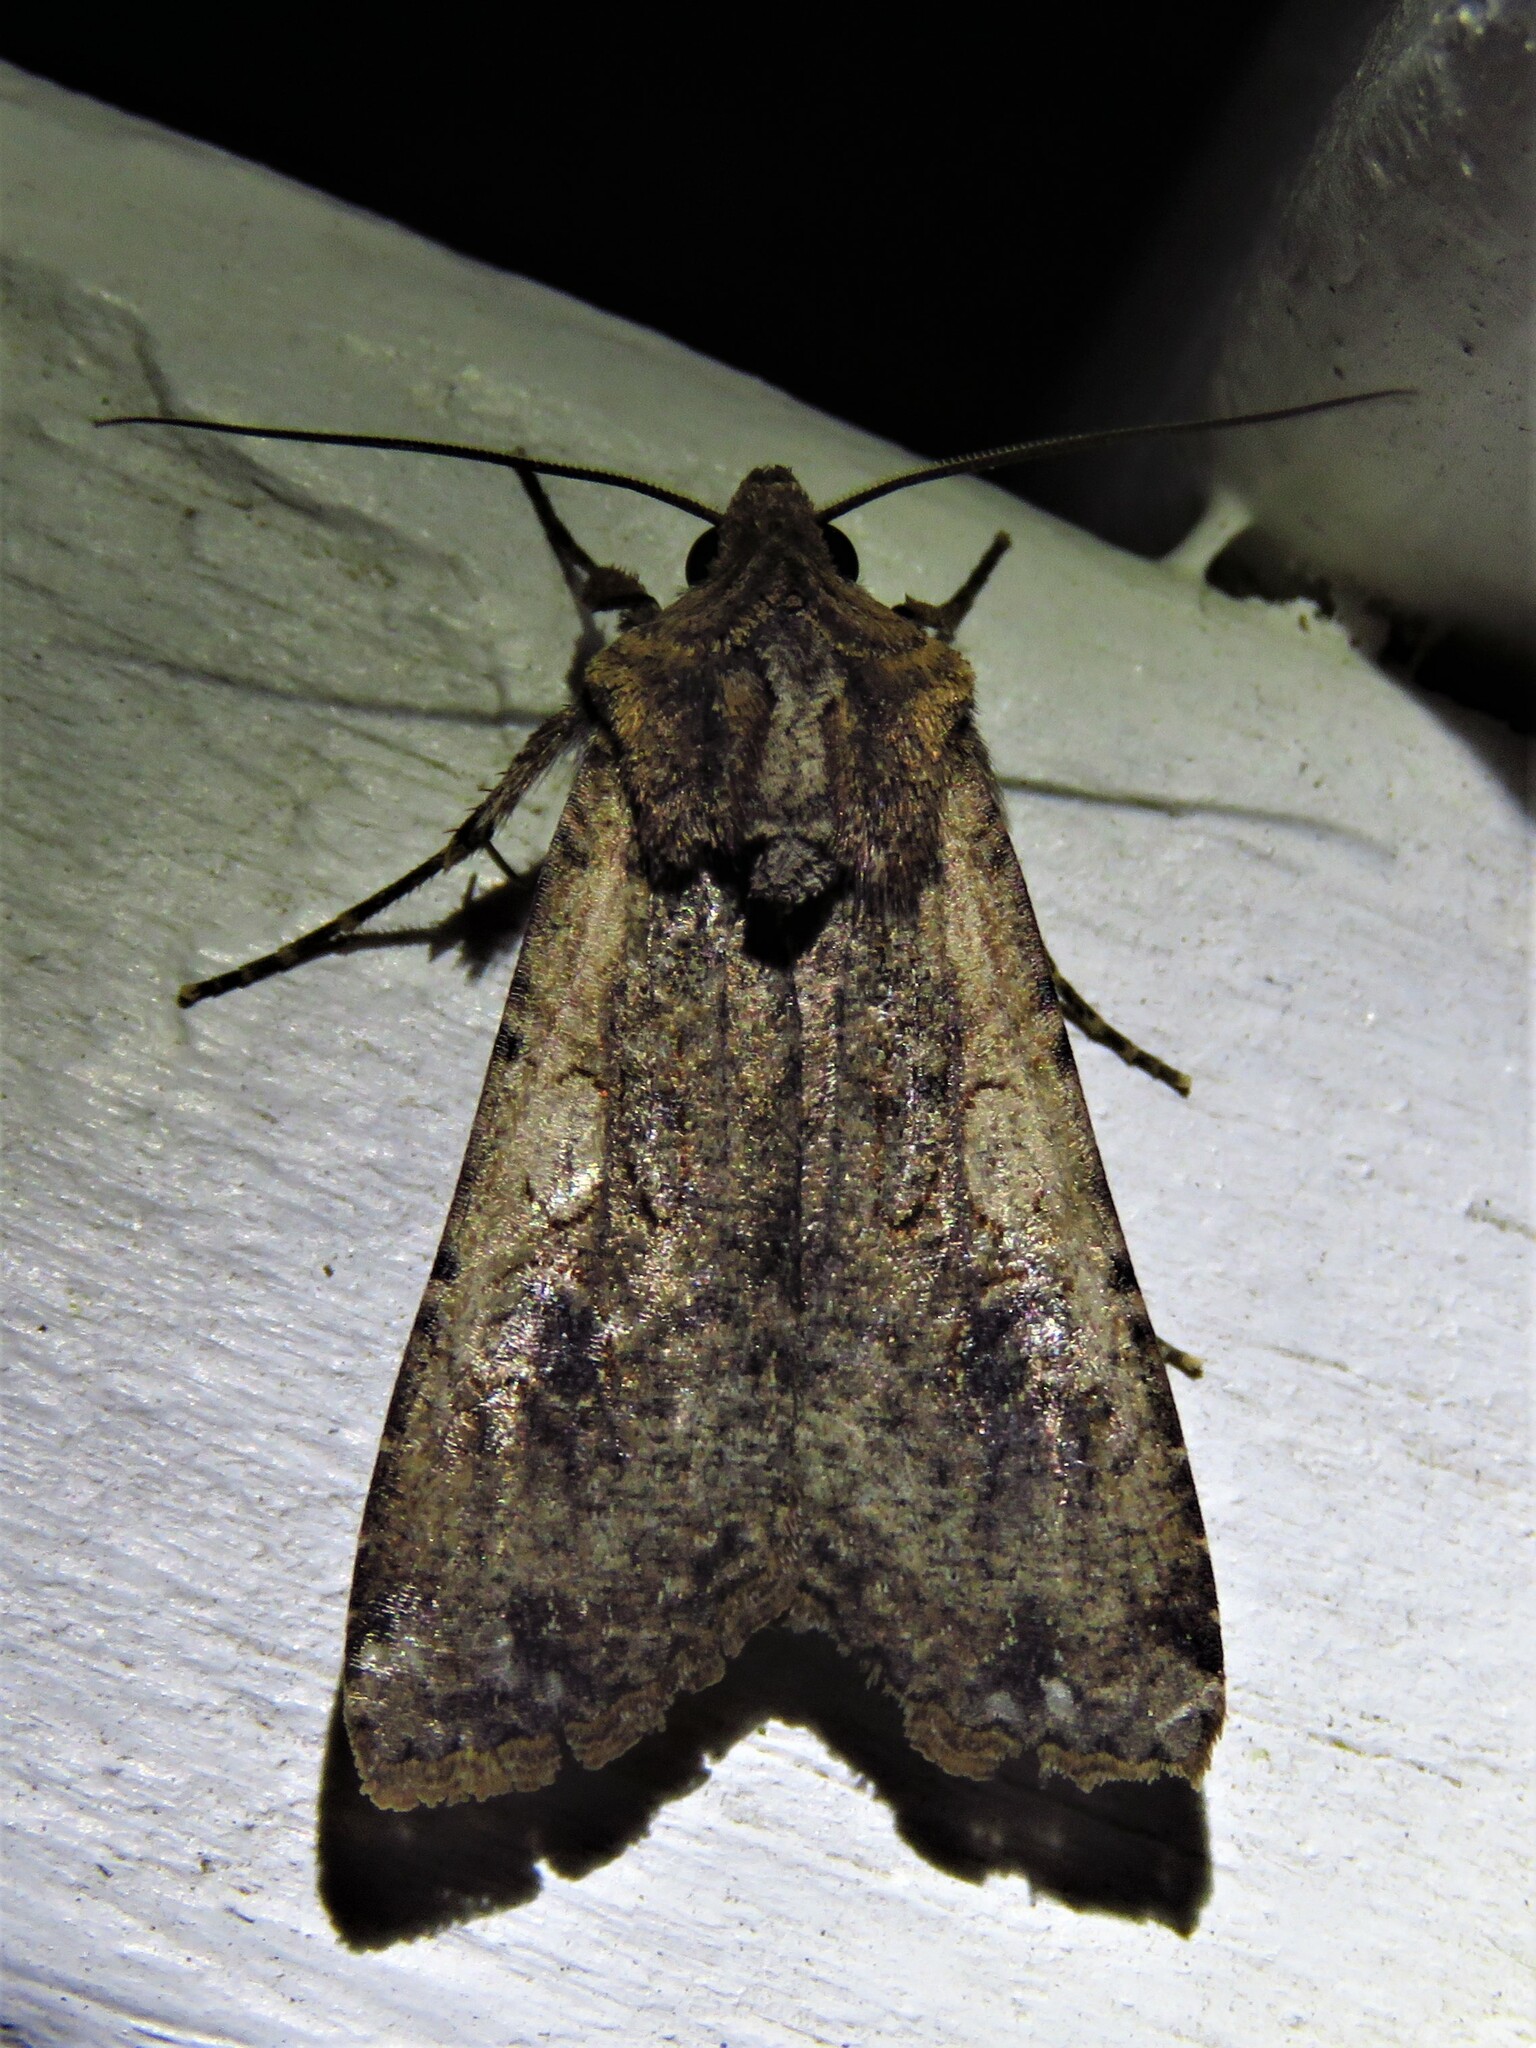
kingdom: Animalia
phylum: Arthropoda
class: Insecta
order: Lepidoptera
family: Noctuidae
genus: Peridroma
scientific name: Peridroma saucia
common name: Pearly underwing
